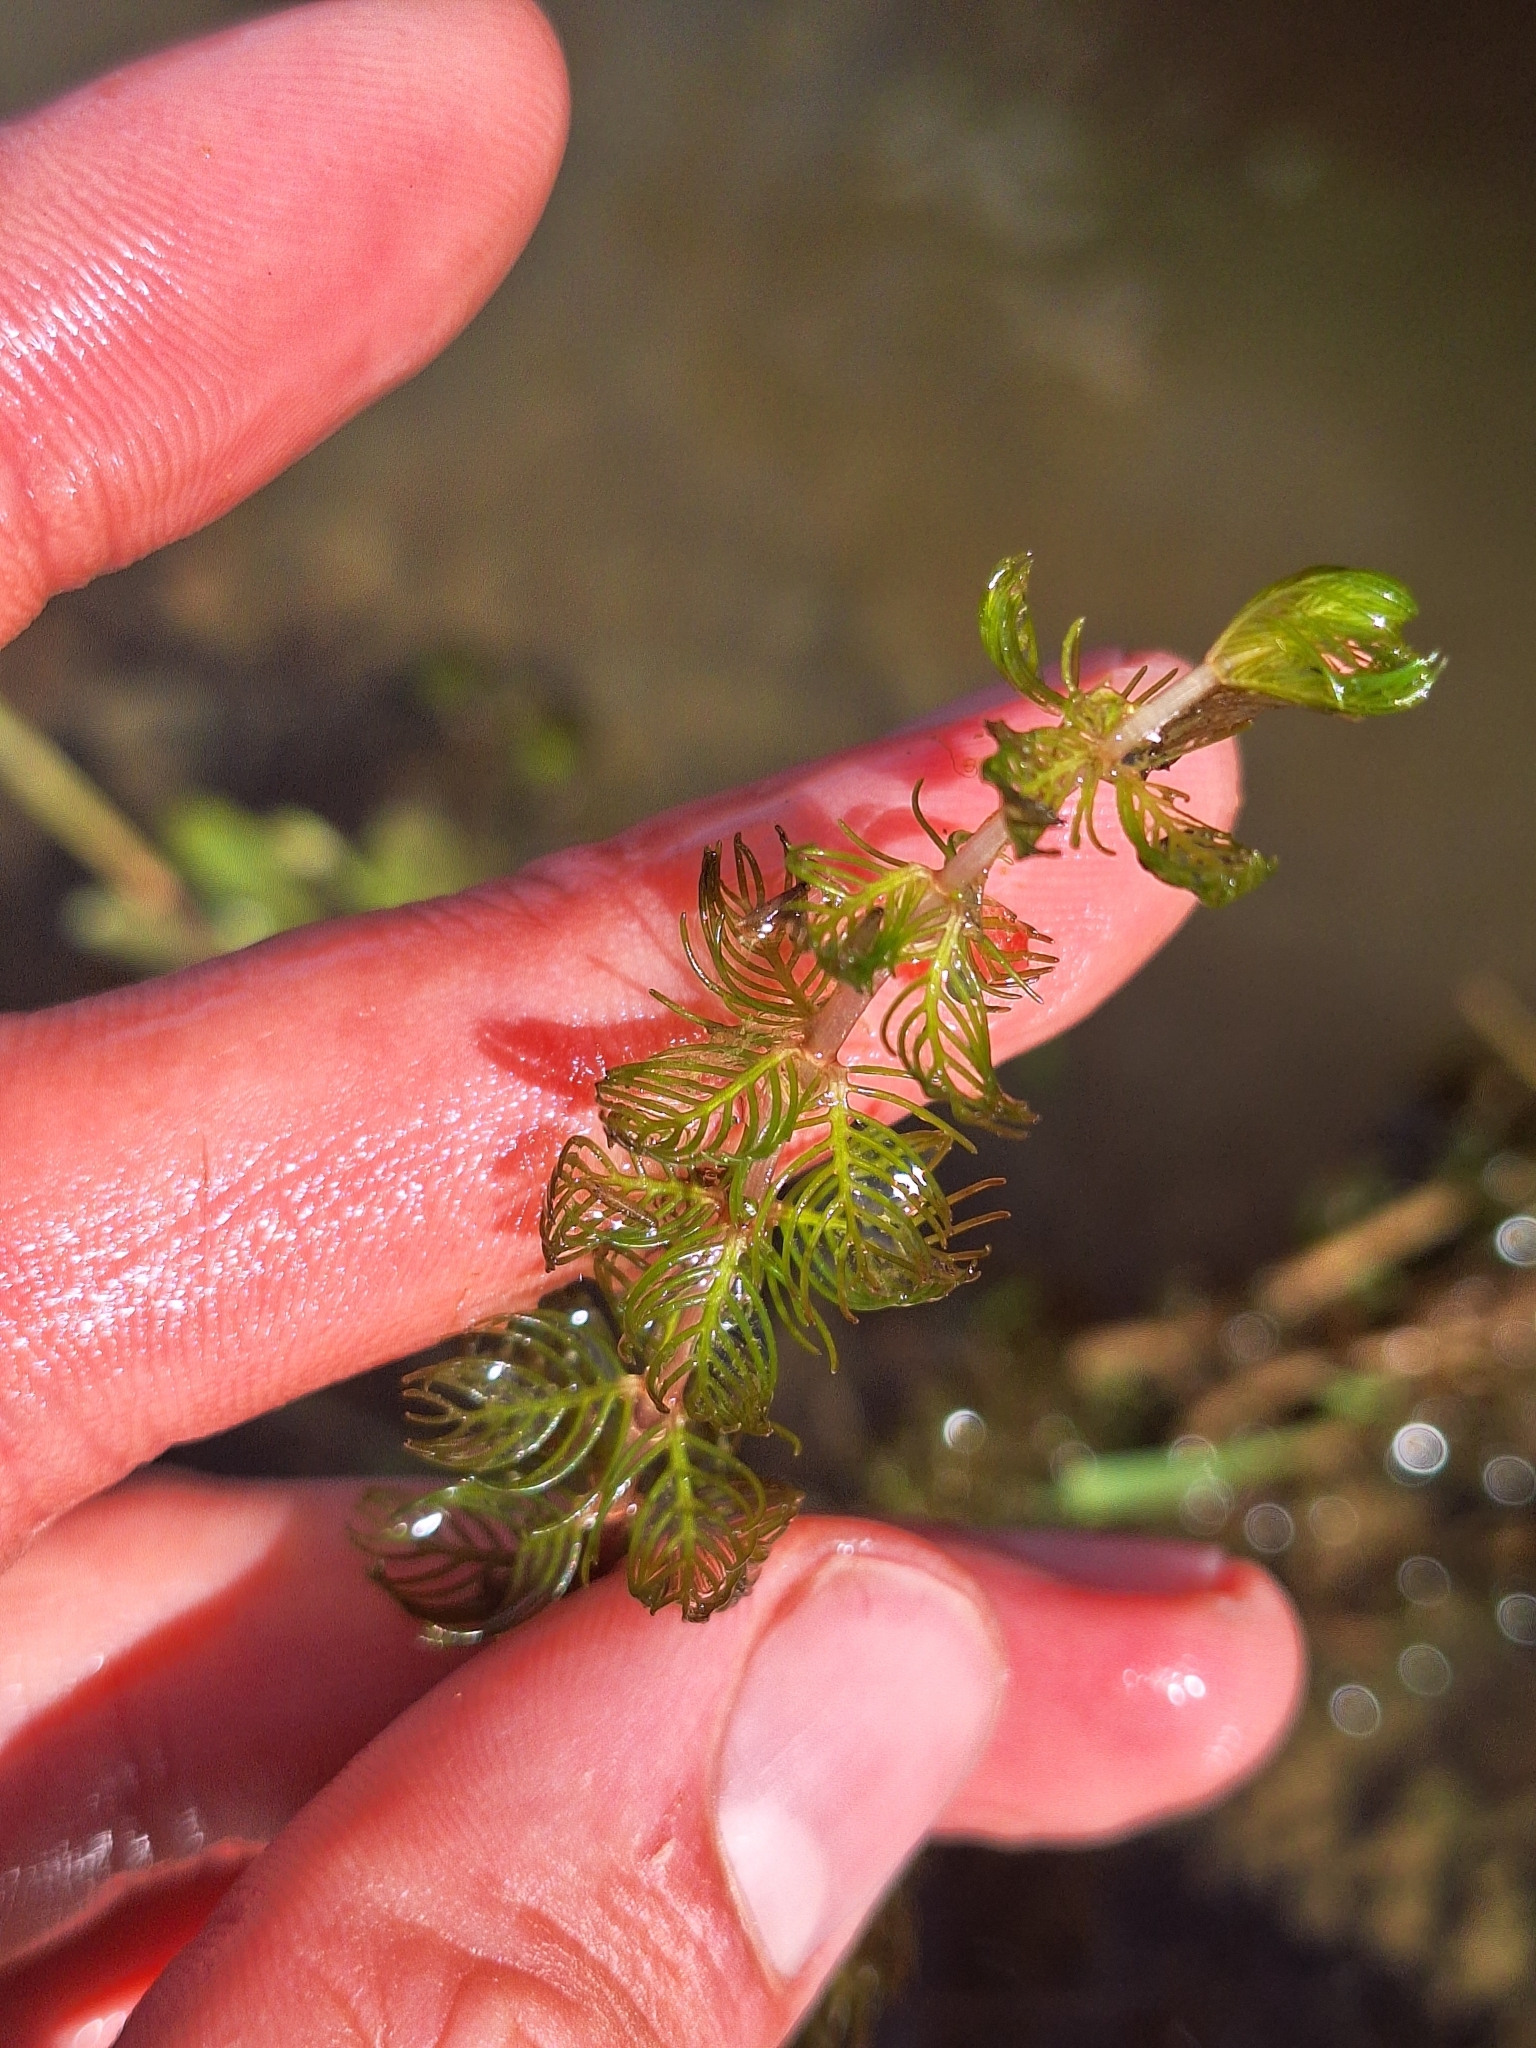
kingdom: Plantae
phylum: Tracheophyta
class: Magnoliopsida
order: Saxifragales
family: Haloragaceae
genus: Myriophyllum
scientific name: Myriophyllum triphyllum
